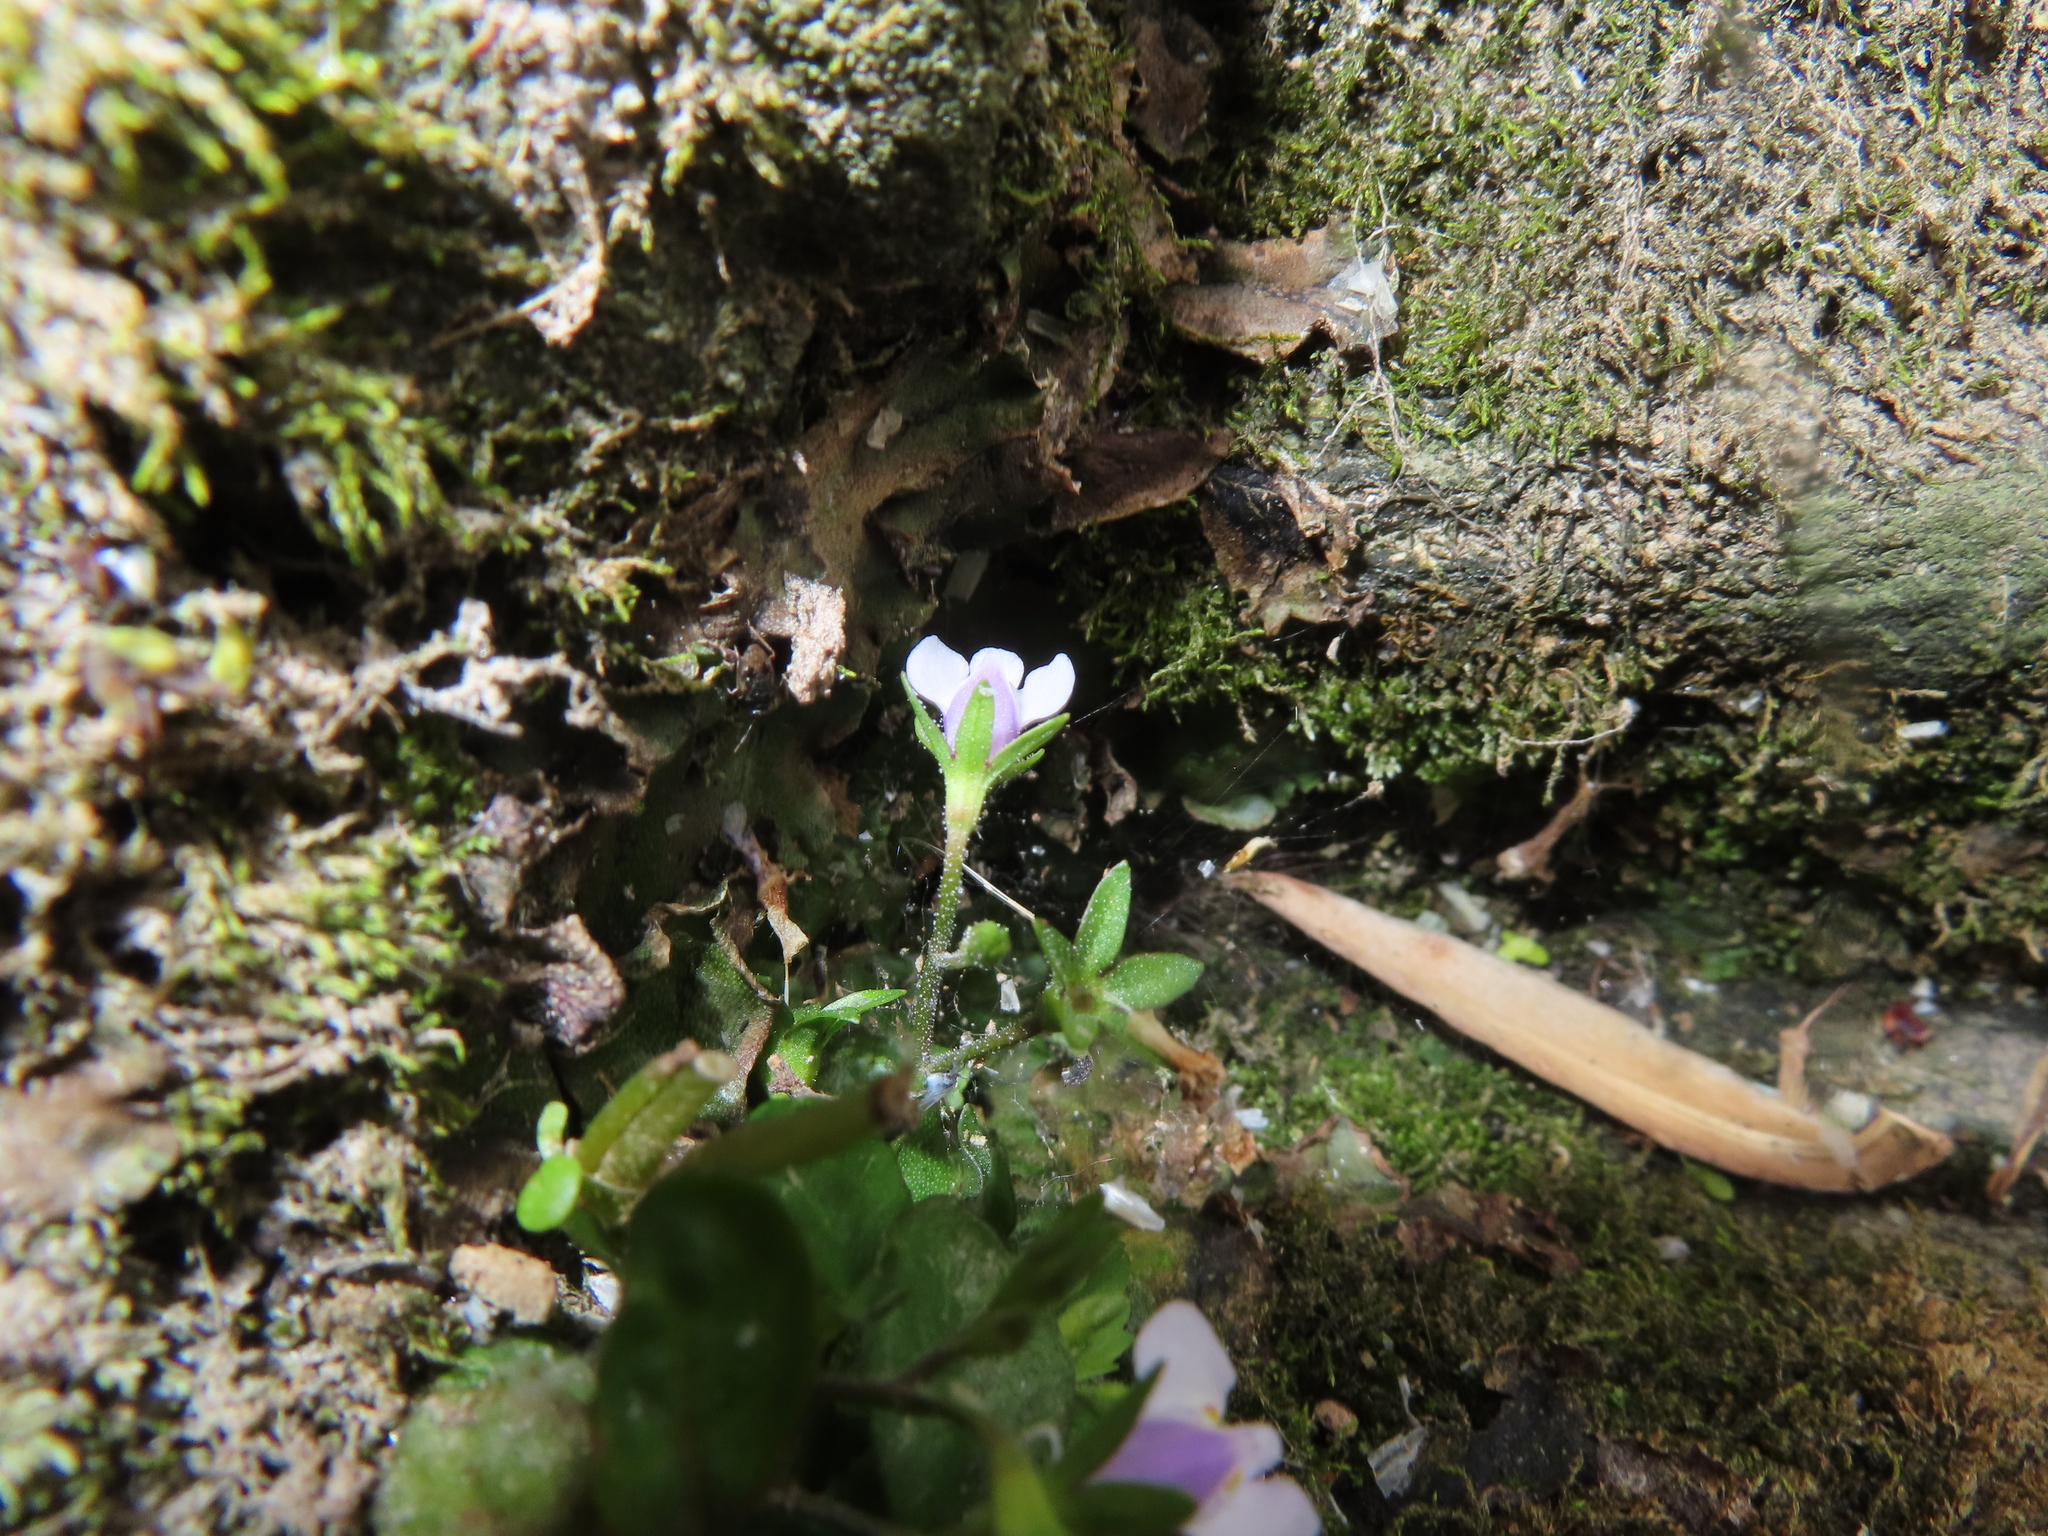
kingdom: Plantae
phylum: Tracheophyta
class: Magnoliopsida
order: Lamiales
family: Mazaceae
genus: Mazus
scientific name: Mazus pumilus
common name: Japanese mazus
